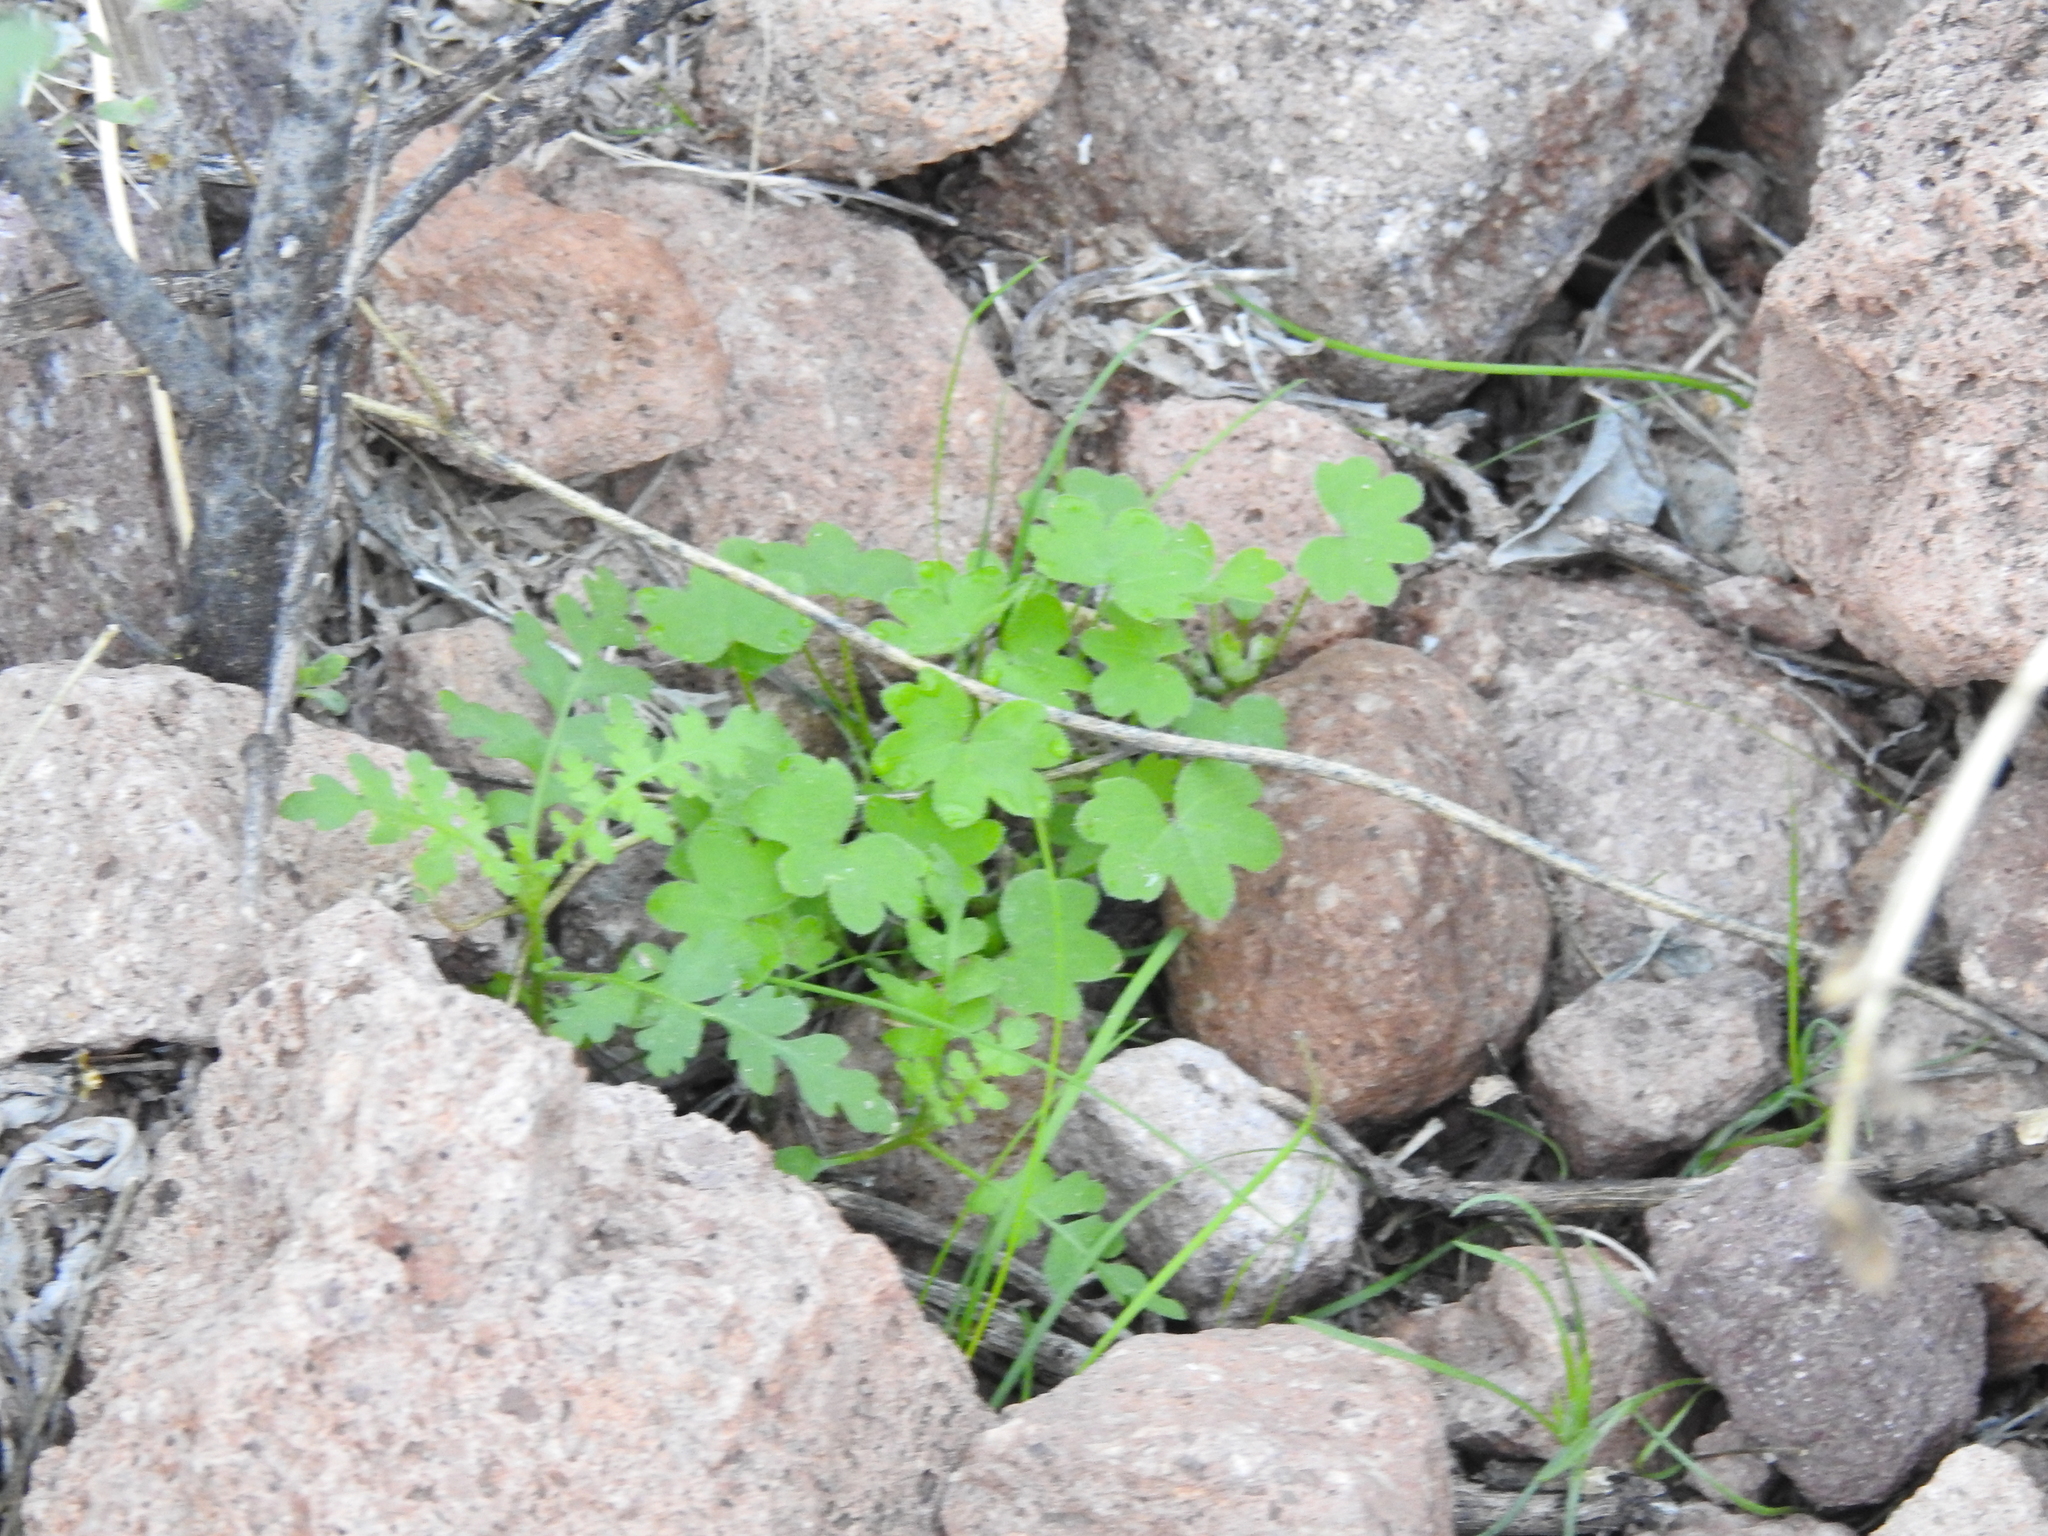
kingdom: Plantae
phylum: Tracheophyta
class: Magnoliopsida
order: Apiales
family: Apiaceae
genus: Bowlesia
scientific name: Bowlesia incana
